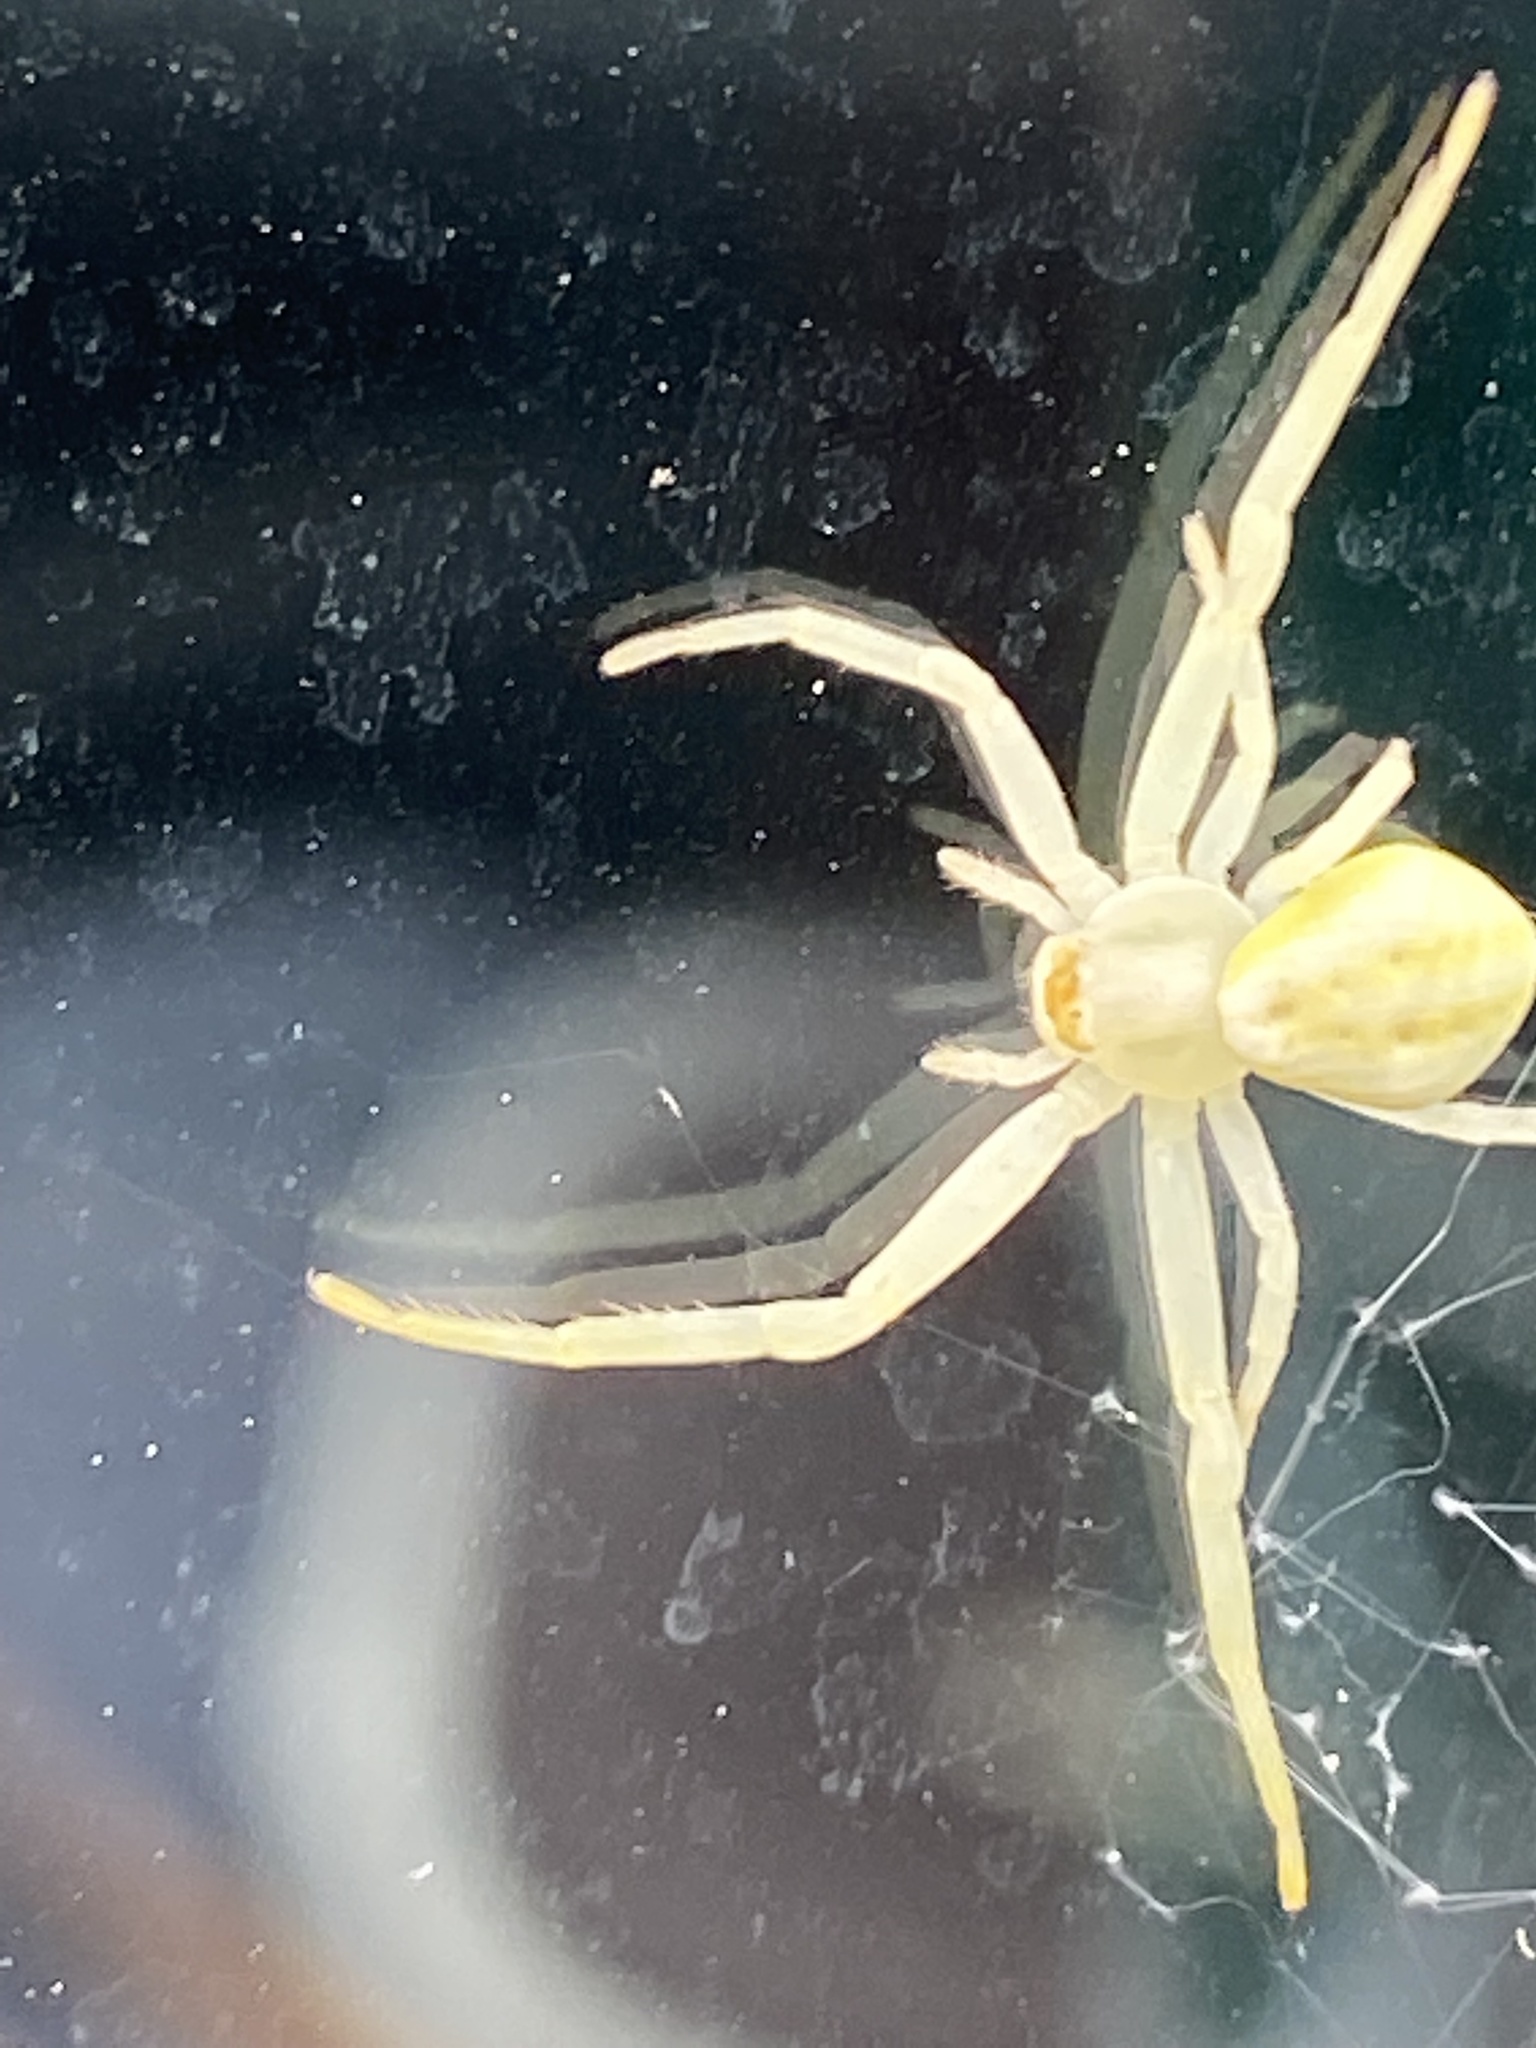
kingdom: Animalia
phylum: Arthropoda
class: Arachnida
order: Araneae
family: Thomisidae
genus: Misumena
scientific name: Misumena vatia
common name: Goldenrod crab spider
